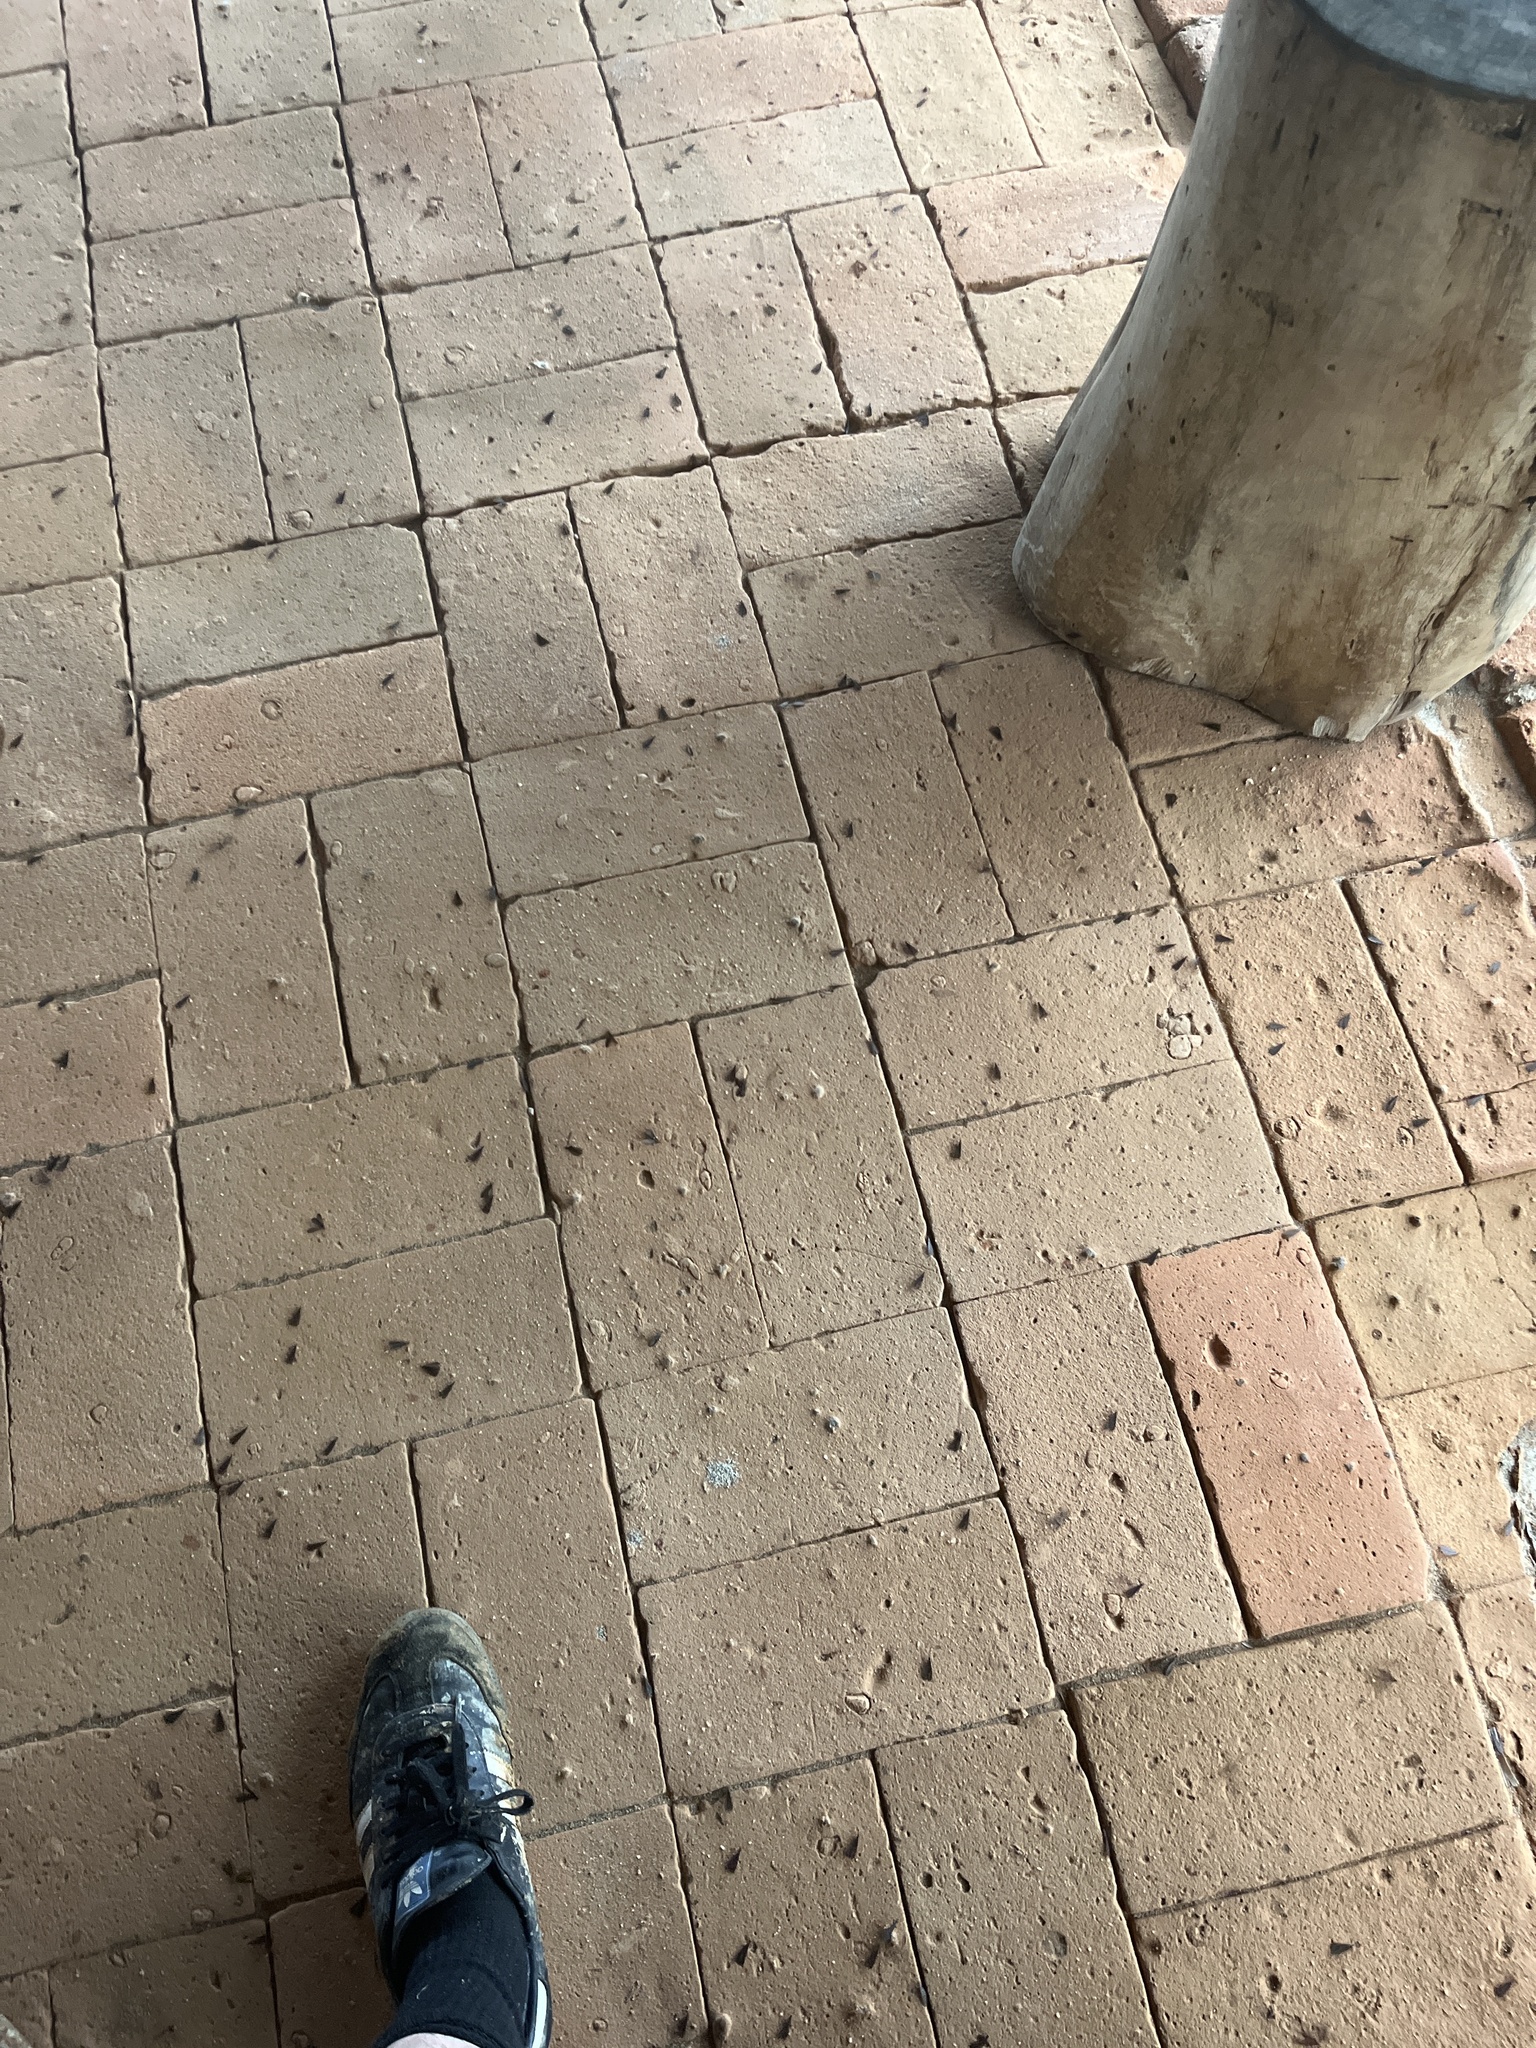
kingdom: Animalia
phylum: Arthropoda
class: Insecta
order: Blattodea
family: Termitidae
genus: Cornitermes
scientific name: Cornitermes cumulans
